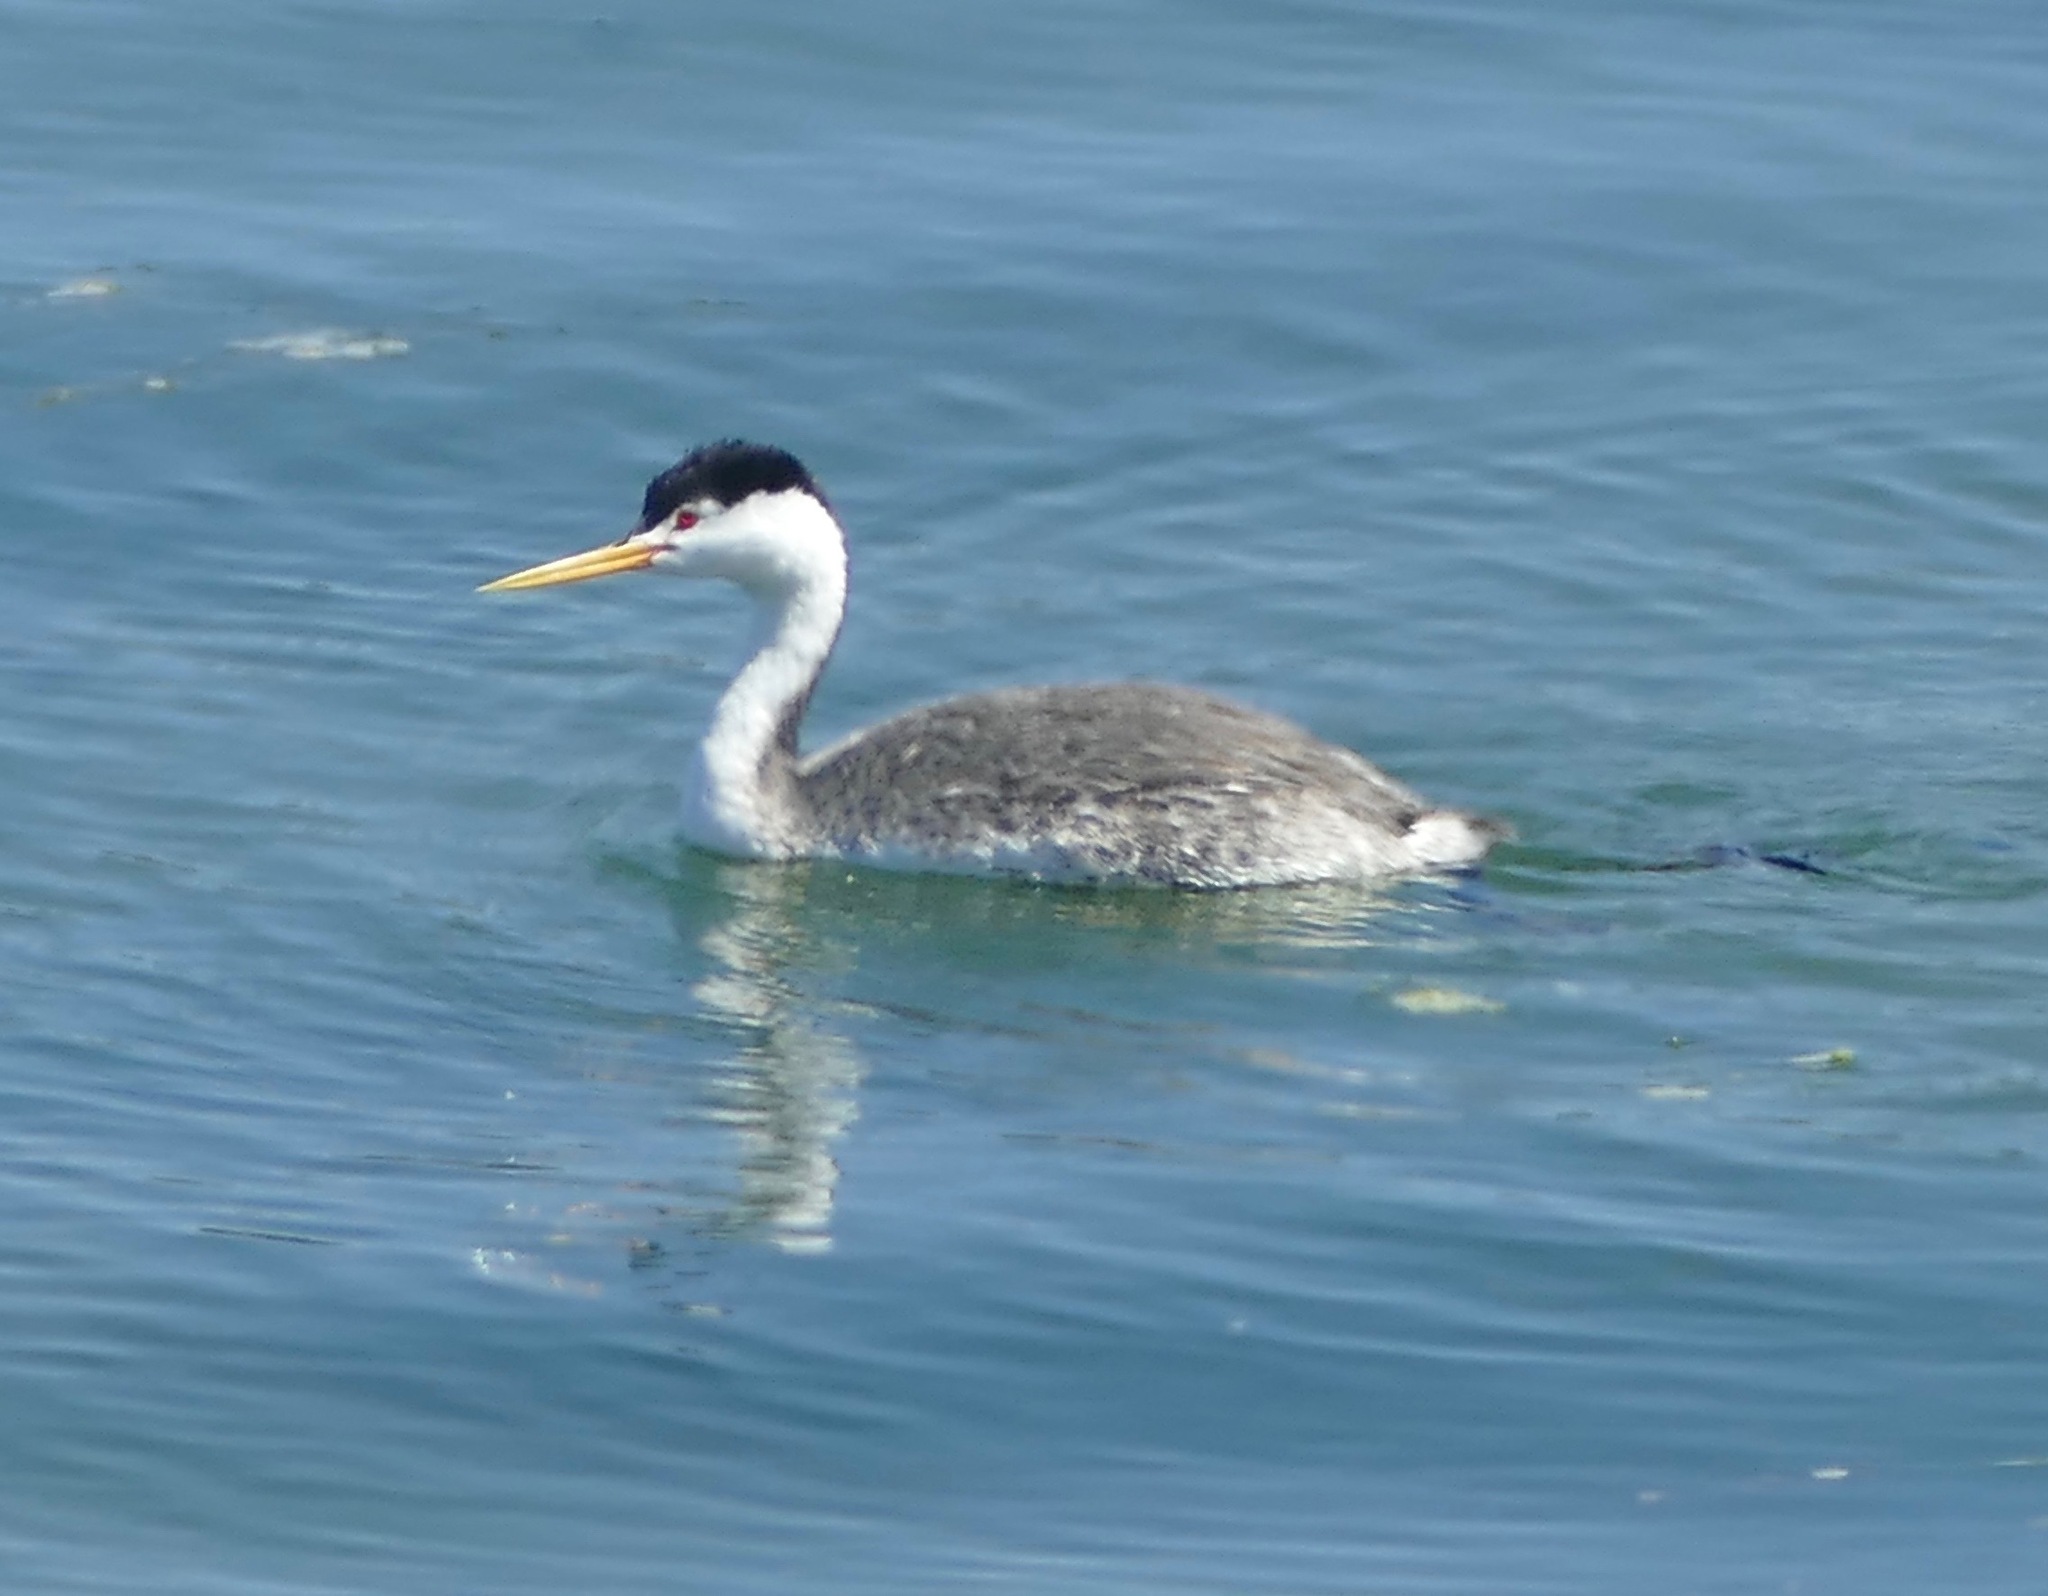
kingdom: Animalia
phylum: Chordata
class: Aves
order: Podicipediformes
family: Podicipedidae
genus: Aechmophorus
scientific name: Aechmophorus clarkii
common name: Clark's grebe
